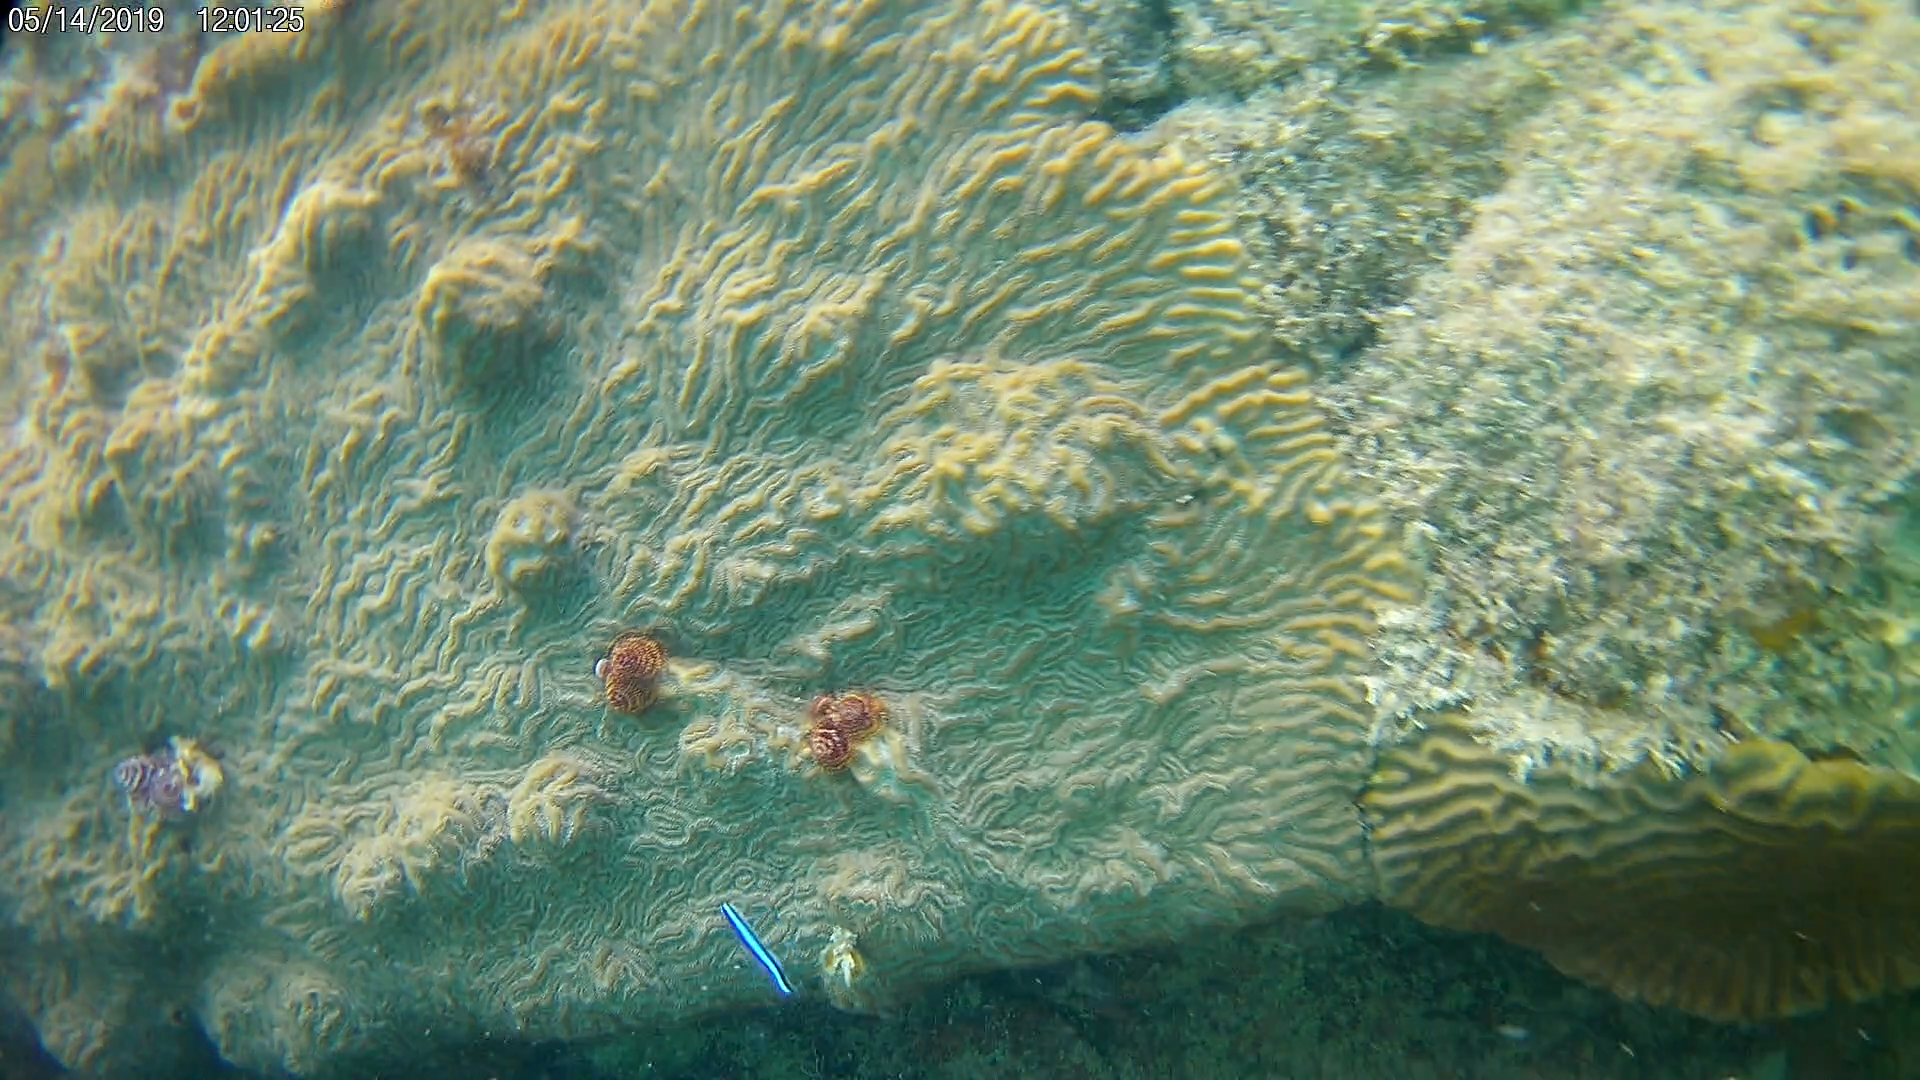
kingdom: Animalia
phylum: Chordata
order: Perciformes
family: Gobiidae
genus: Elacatinus
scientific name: Elacatinus oceanops
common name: Northern neon goby
